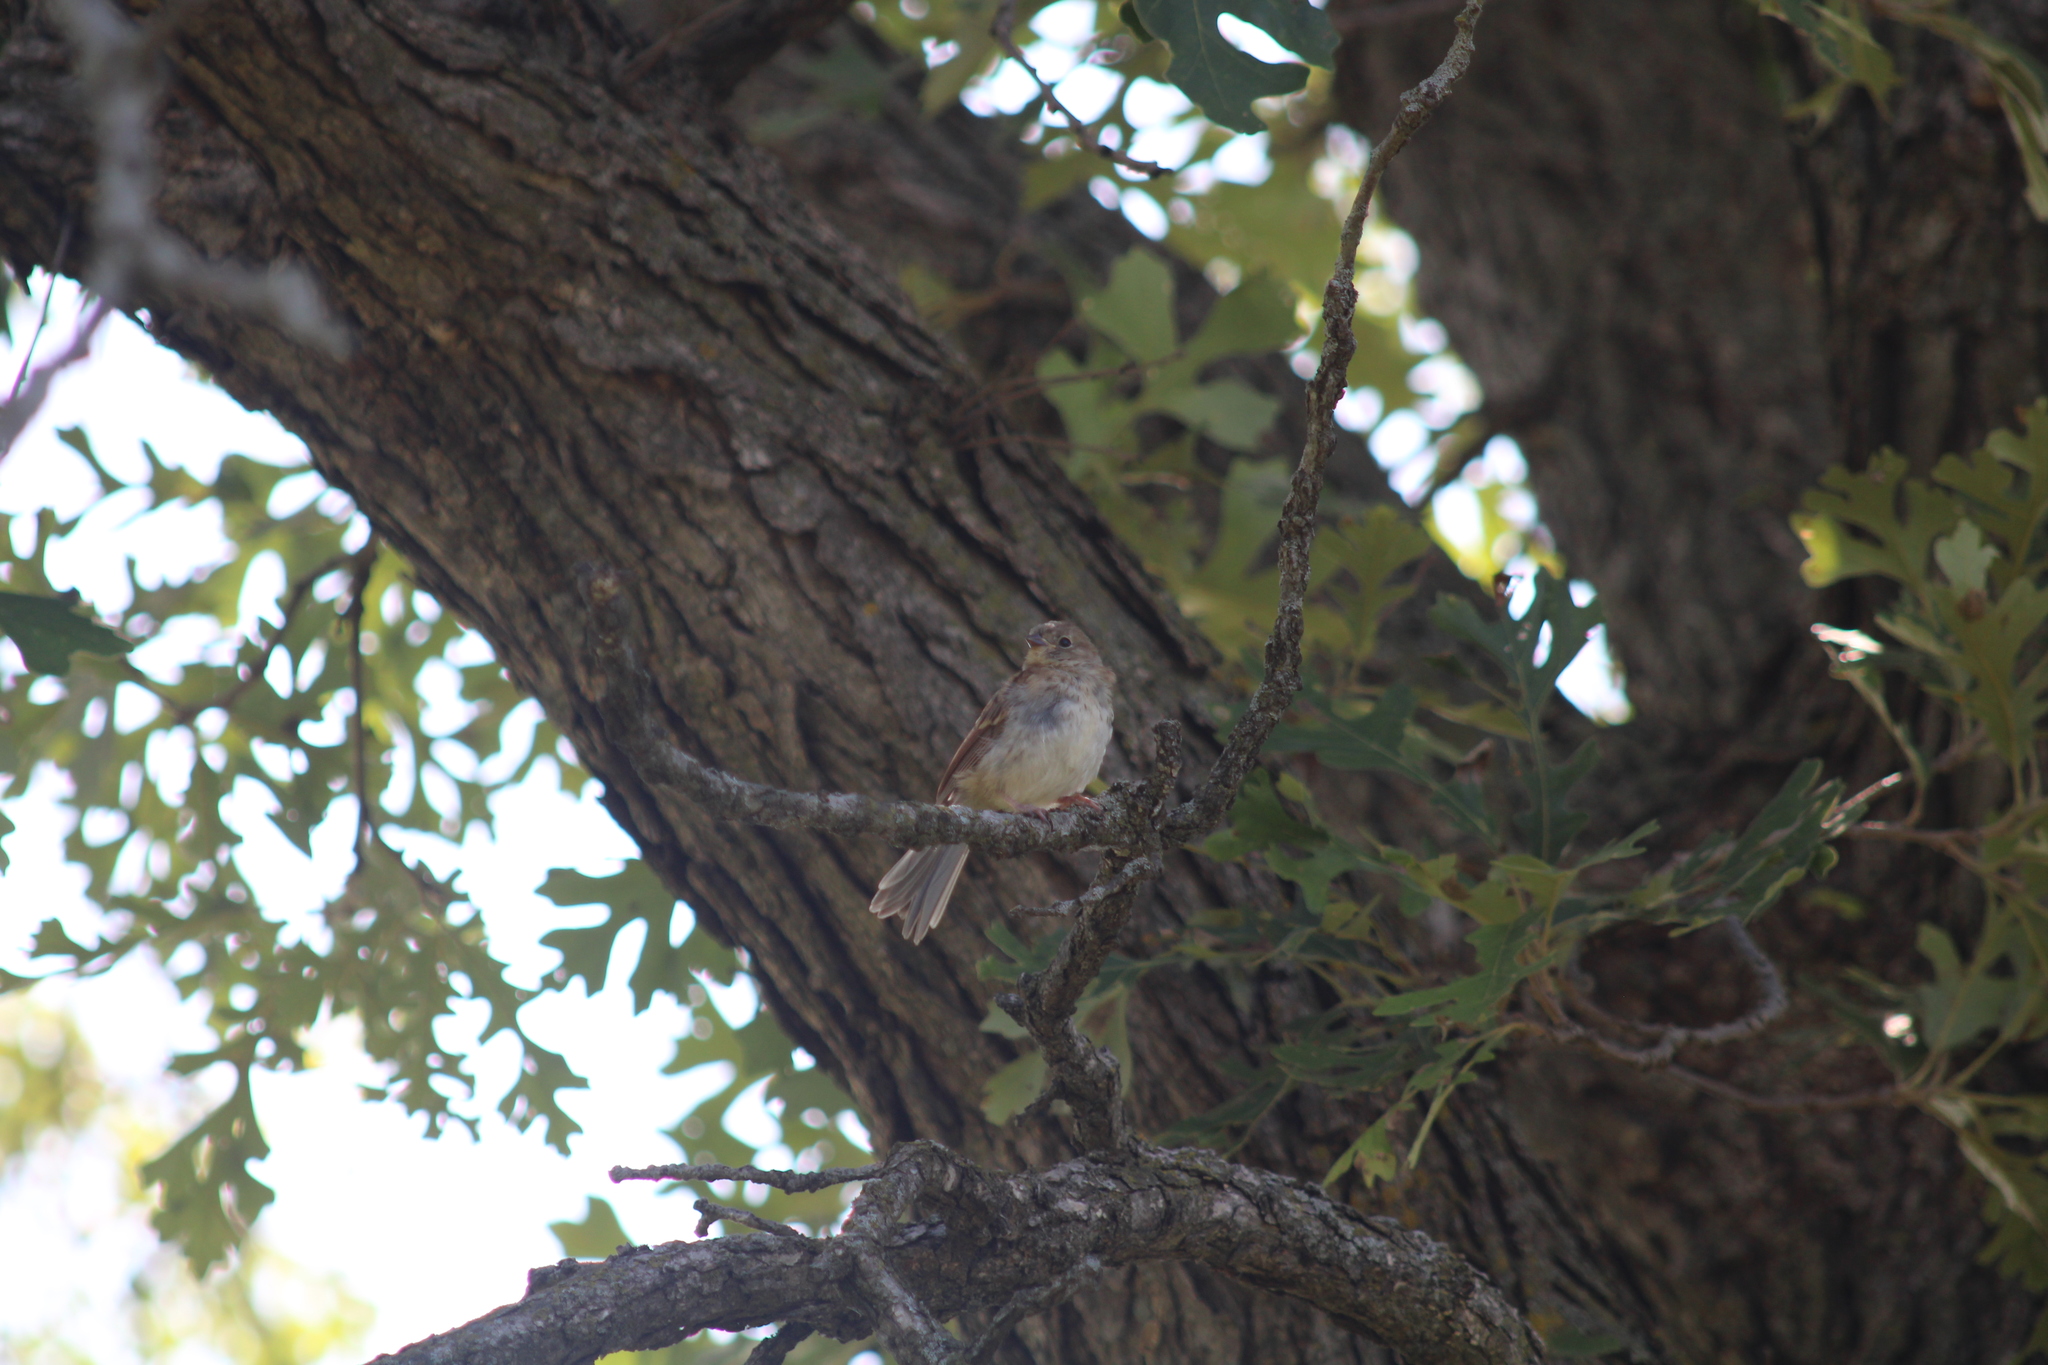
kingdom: Animalia
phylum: Chordata
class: Aves
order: Passeriformes
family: Passerellidae
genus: Spizella
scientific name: Spizella pusilla
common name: Field sparrow
